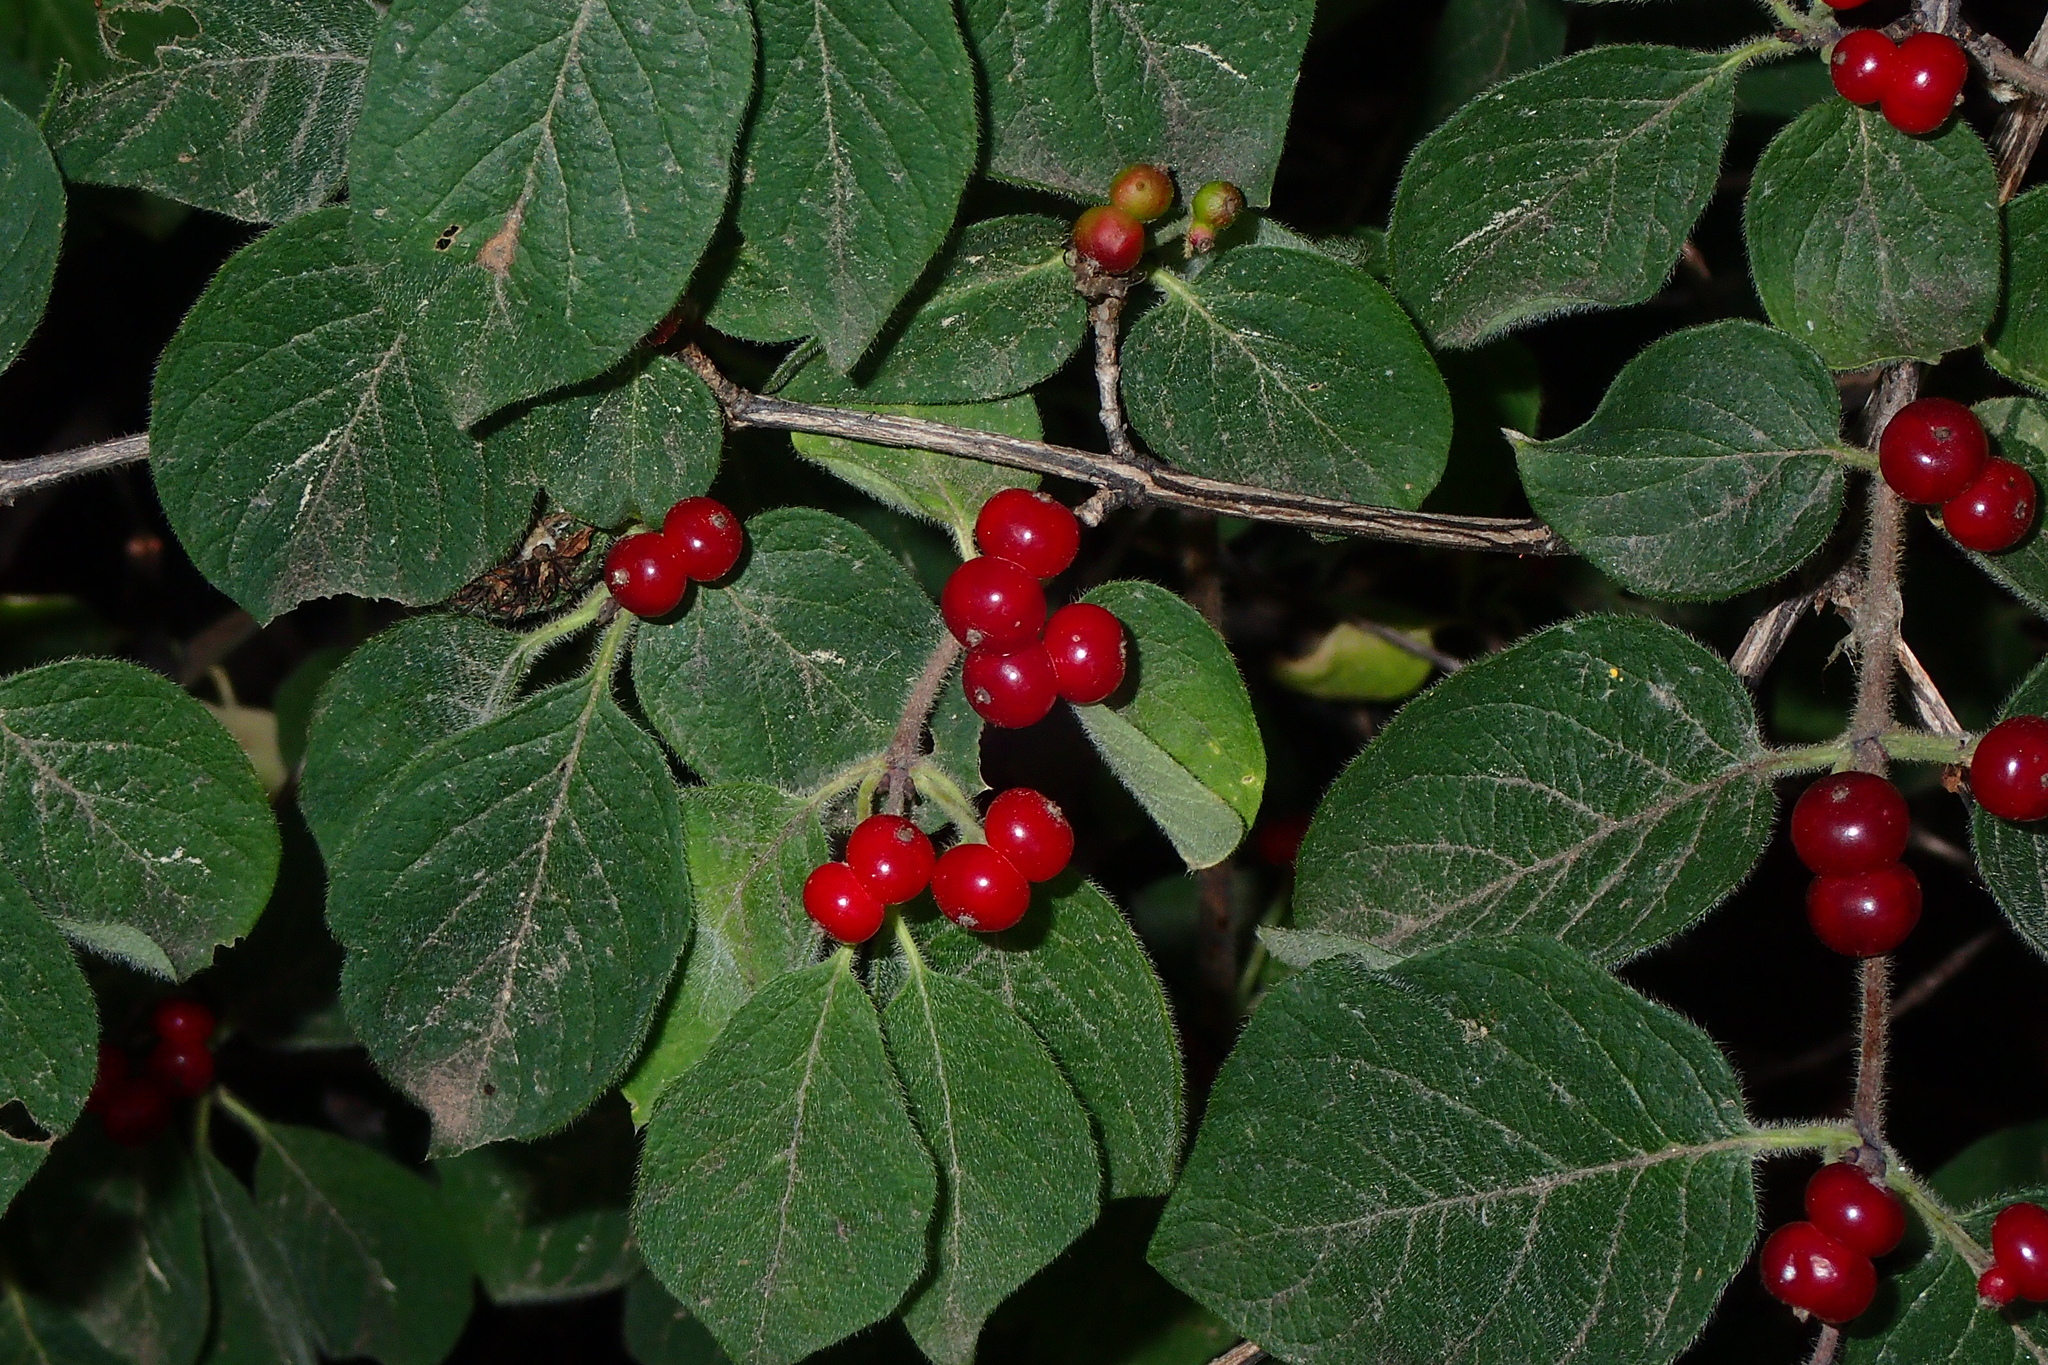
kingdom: Plantae
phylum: Tracheophyta
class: Magnoliopsida
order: Dipsacales
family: Caprifoliaceae
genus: Lonicera
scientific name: Lonicera xylosteum
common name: Fly honeysuckle
